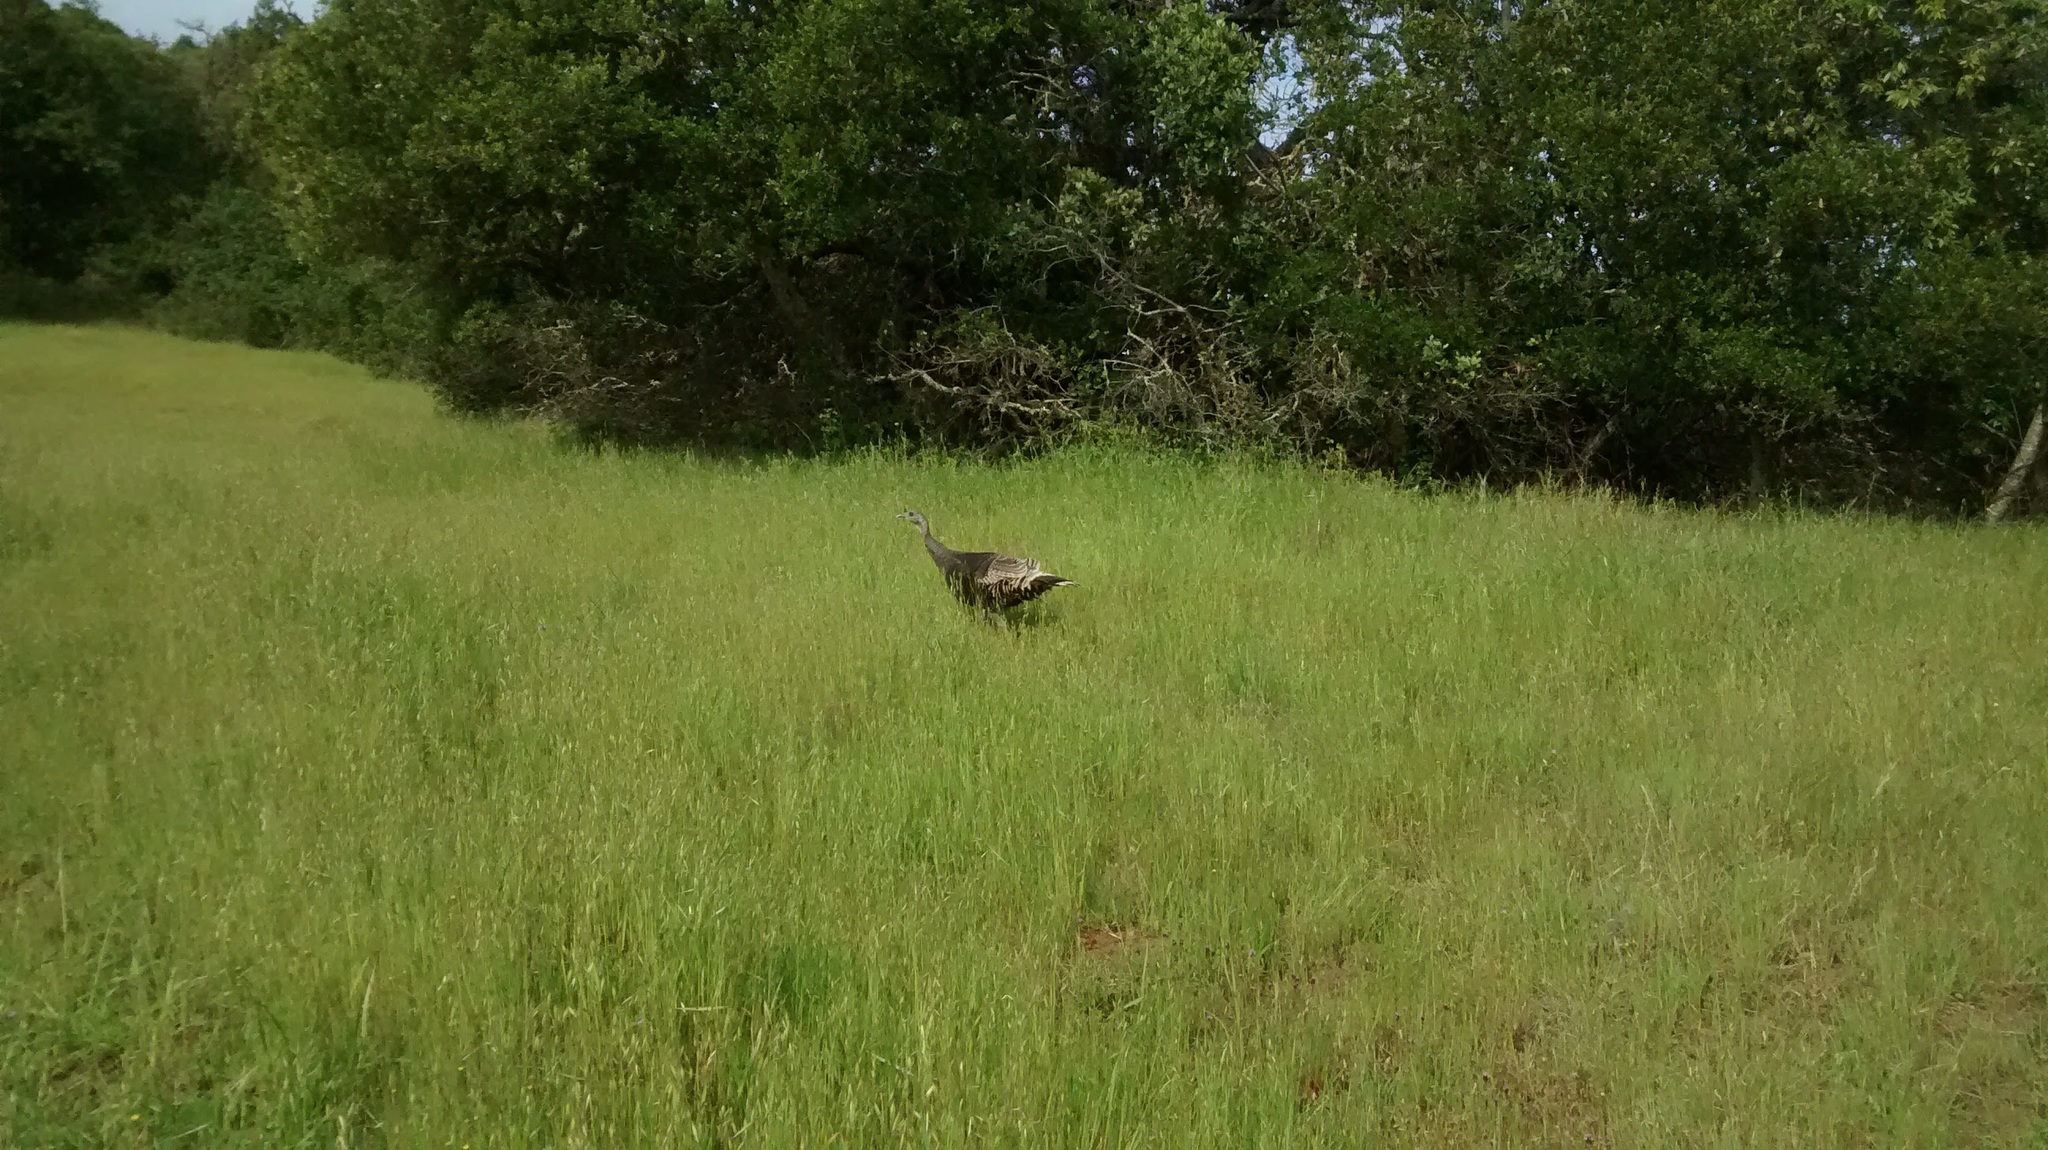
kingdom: Animalia
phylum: Chordata
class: Aves
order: Galliformes
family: Phasianidae
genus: Meleagris
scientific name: Meleagris gallopavo
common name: Wild turkey
